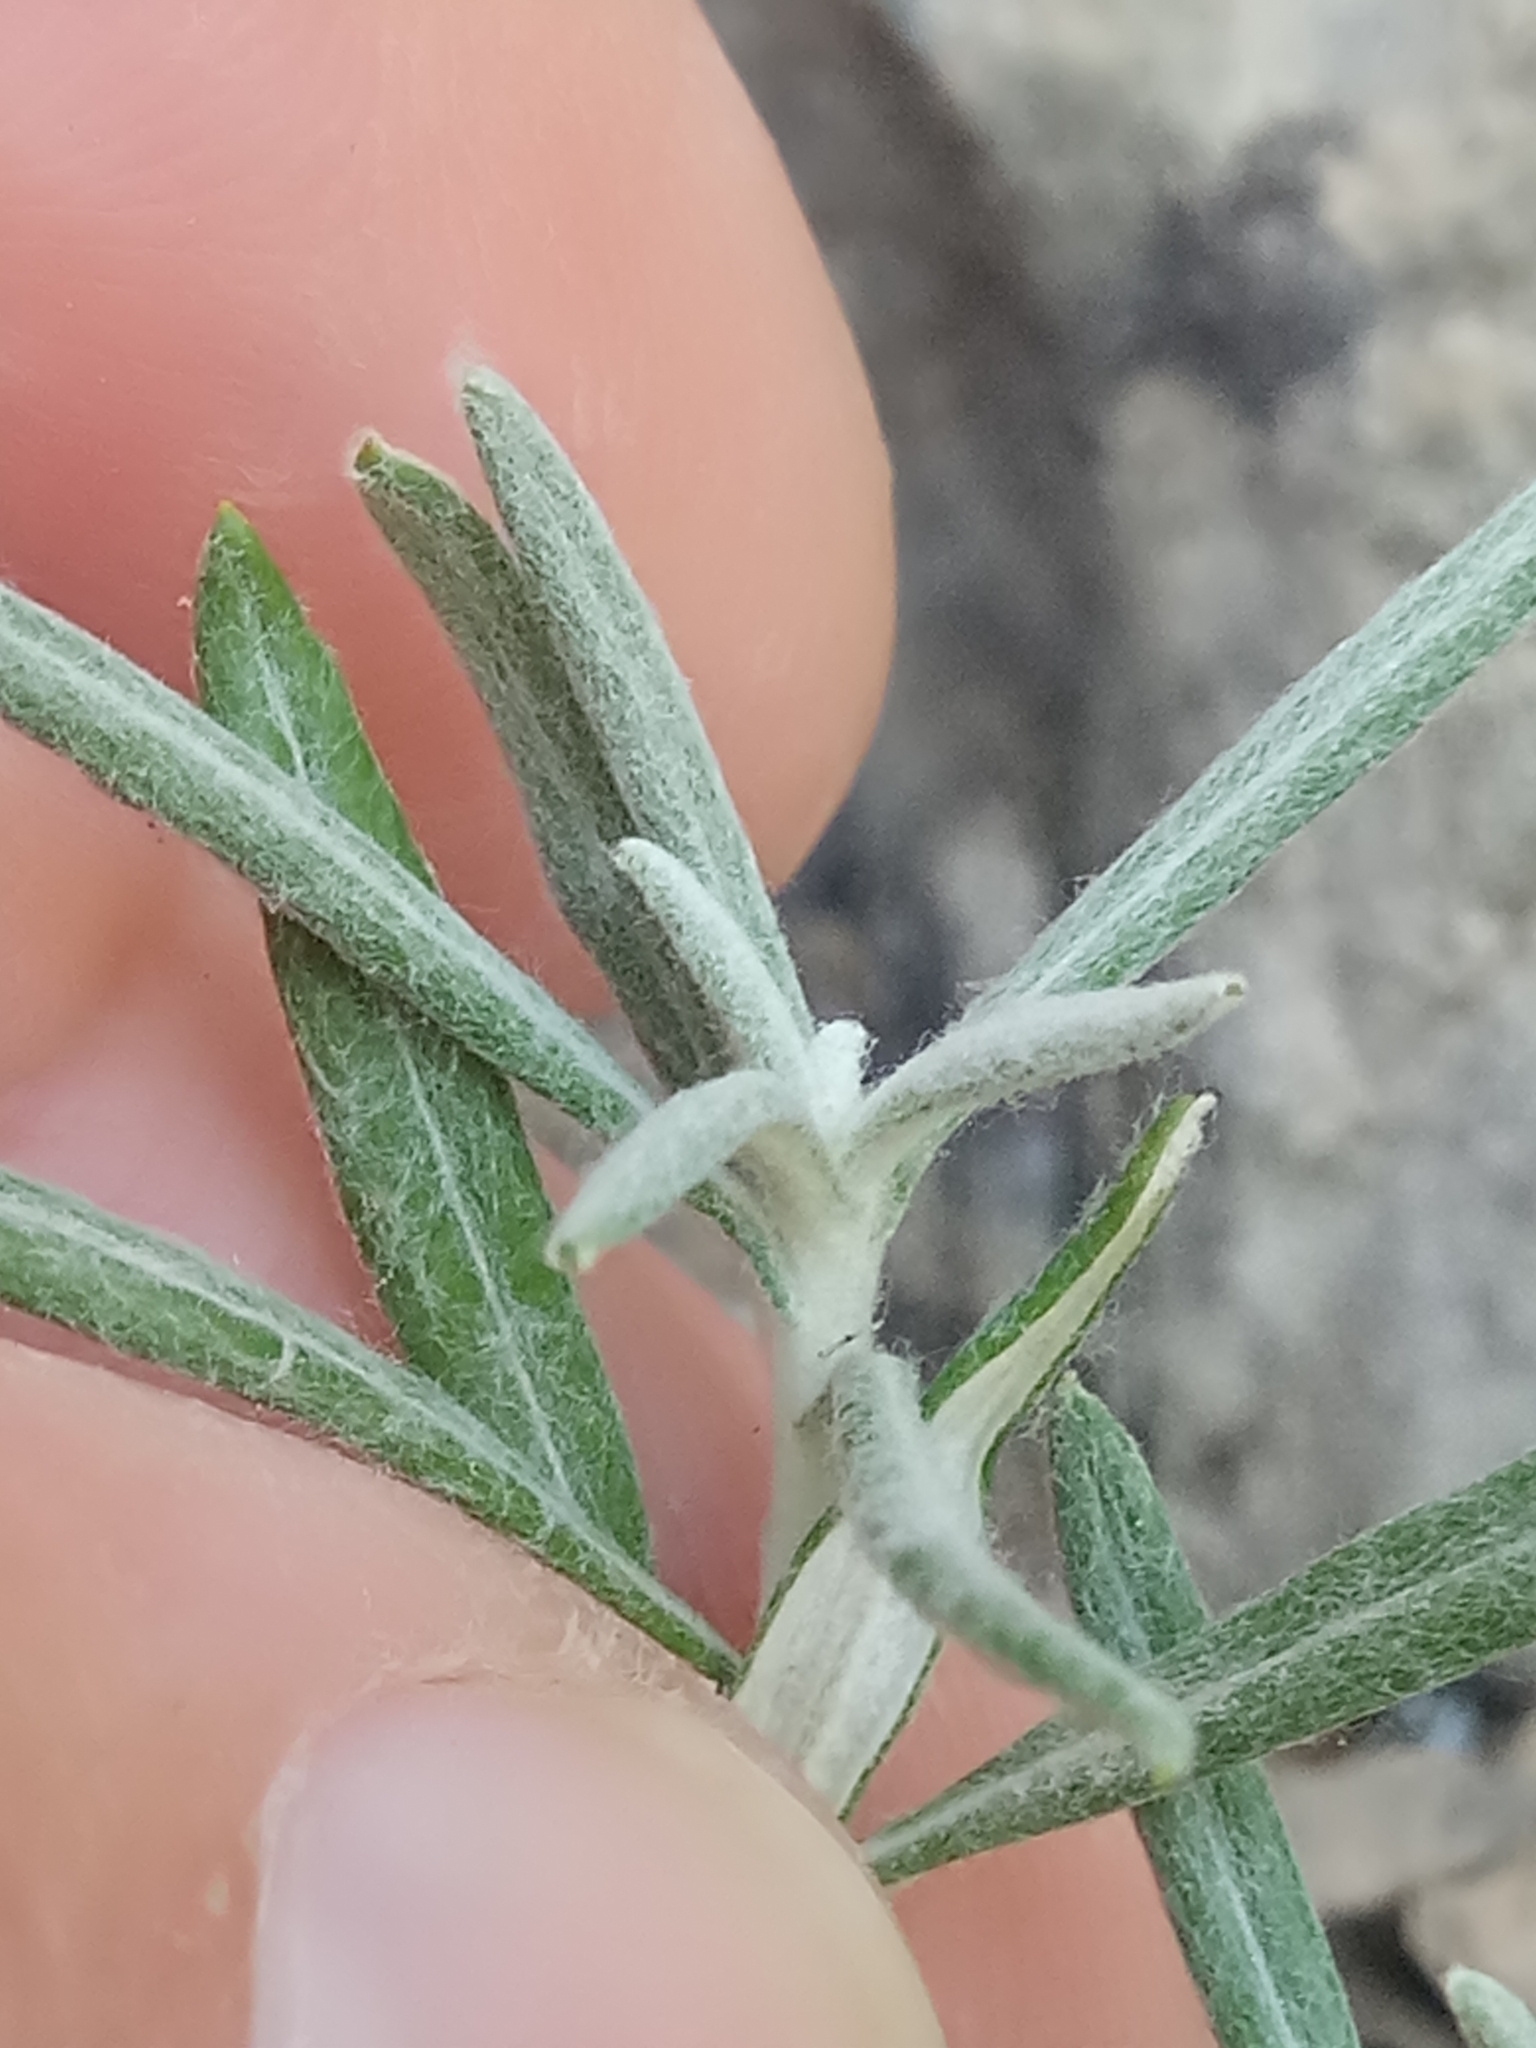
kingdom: Plantae
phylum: Tracheophyta
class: Magnoliopsida
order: Asterales
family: Asteraceae
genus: Phagnalon
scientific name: Phagnalon saxatile
